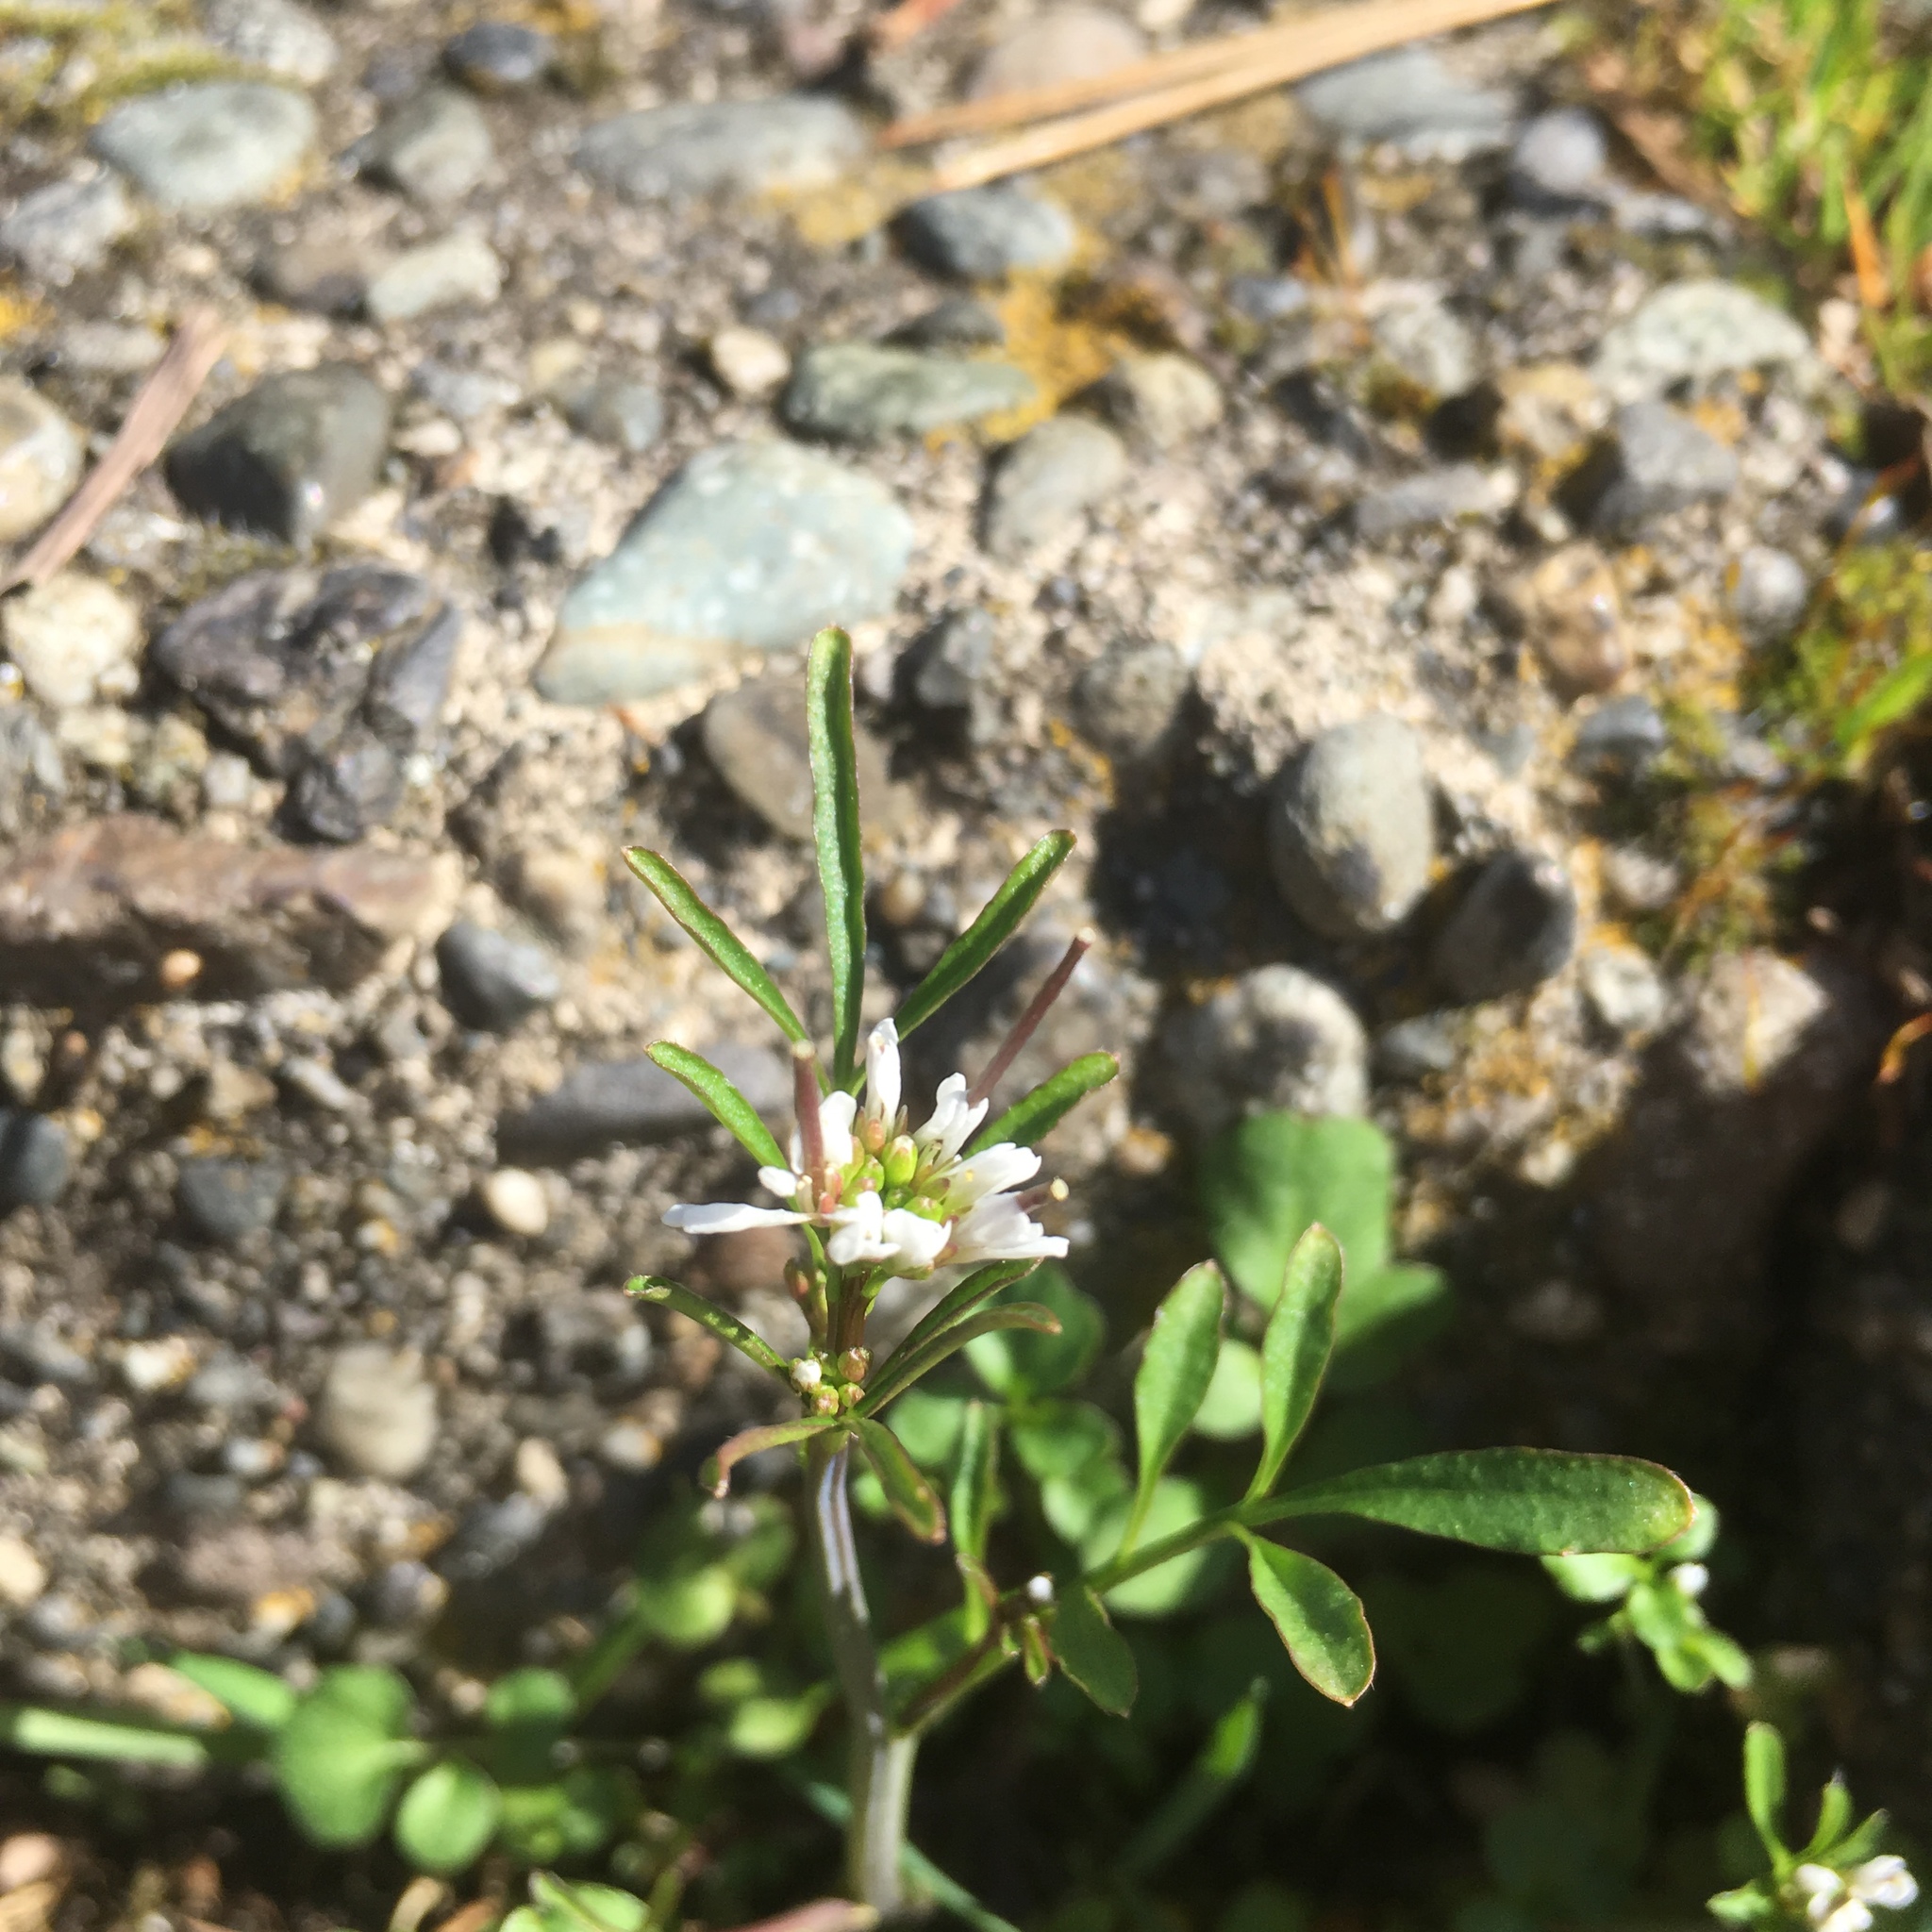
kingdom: Plantae
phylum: Tracheophyta
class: Magnoliopsida
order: Brassicales
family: Brassicaceae
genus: Cardamine
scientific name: Cardamine hirsuta
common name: Hairy bittercress
